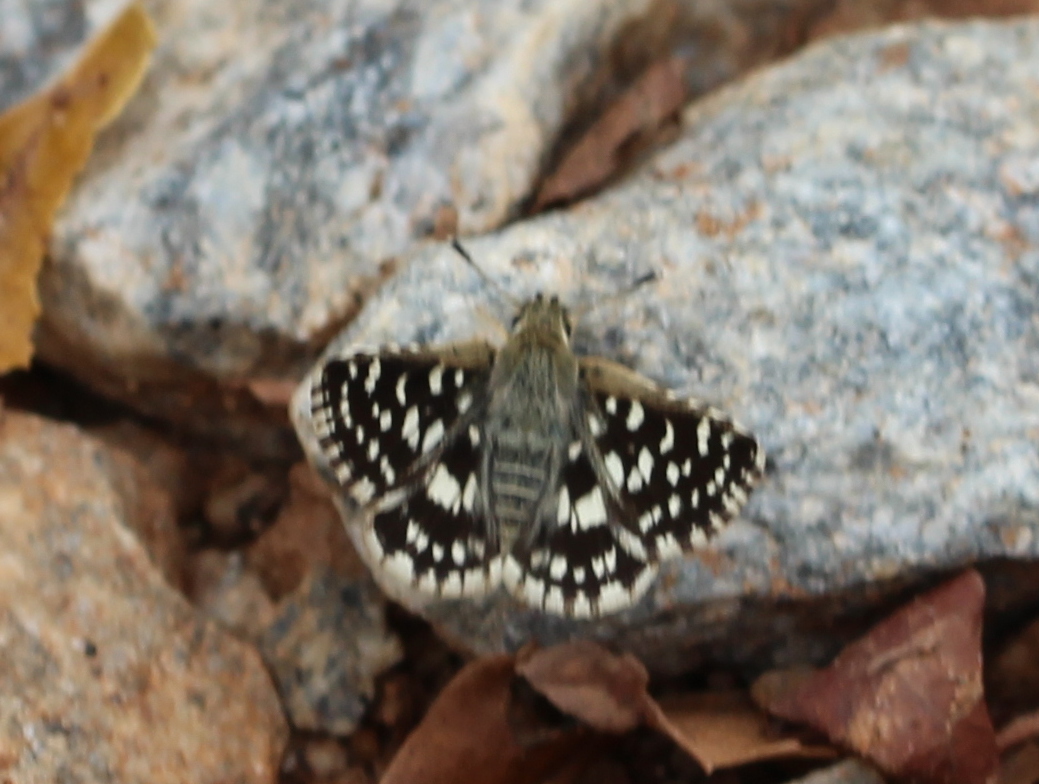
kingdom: Animalia
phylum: Arthropoda
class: Insecta
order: Lepidoptera
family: Hesperiidae
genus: Spialia
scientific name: Spialia galba
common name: Indian skipper
